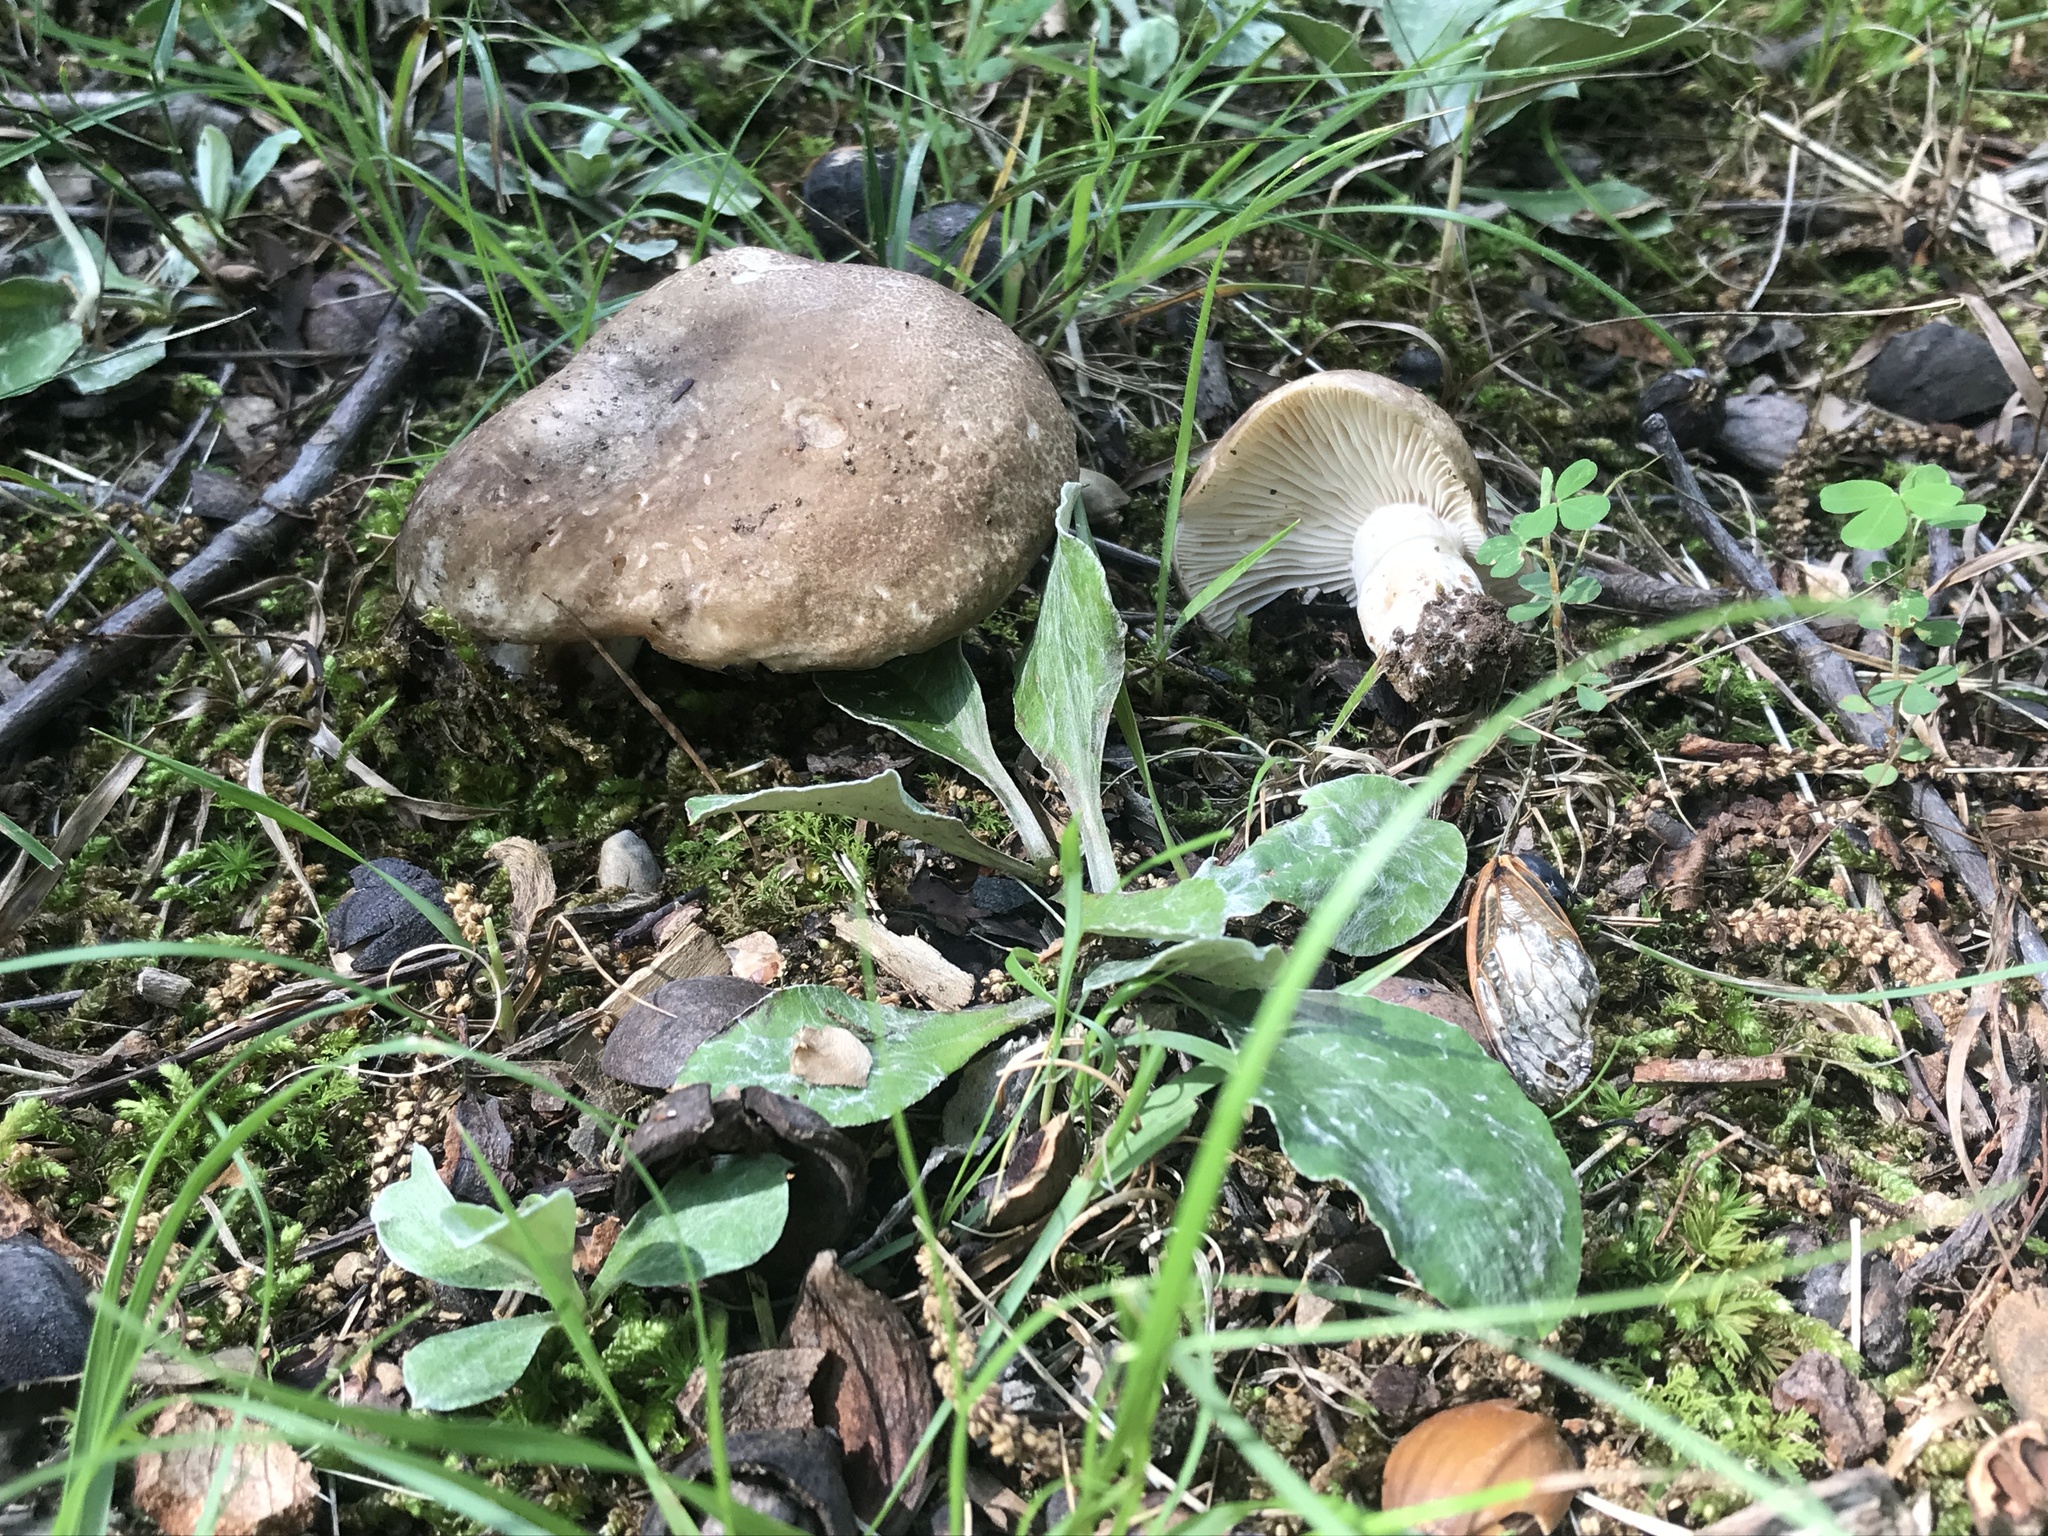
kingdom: Fungi
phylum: Basidiomycota
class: Agaricomycetes
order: Russulales
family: Russulaceae
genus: Russula
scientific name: Russula adusta
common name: Winecork brittlegill
